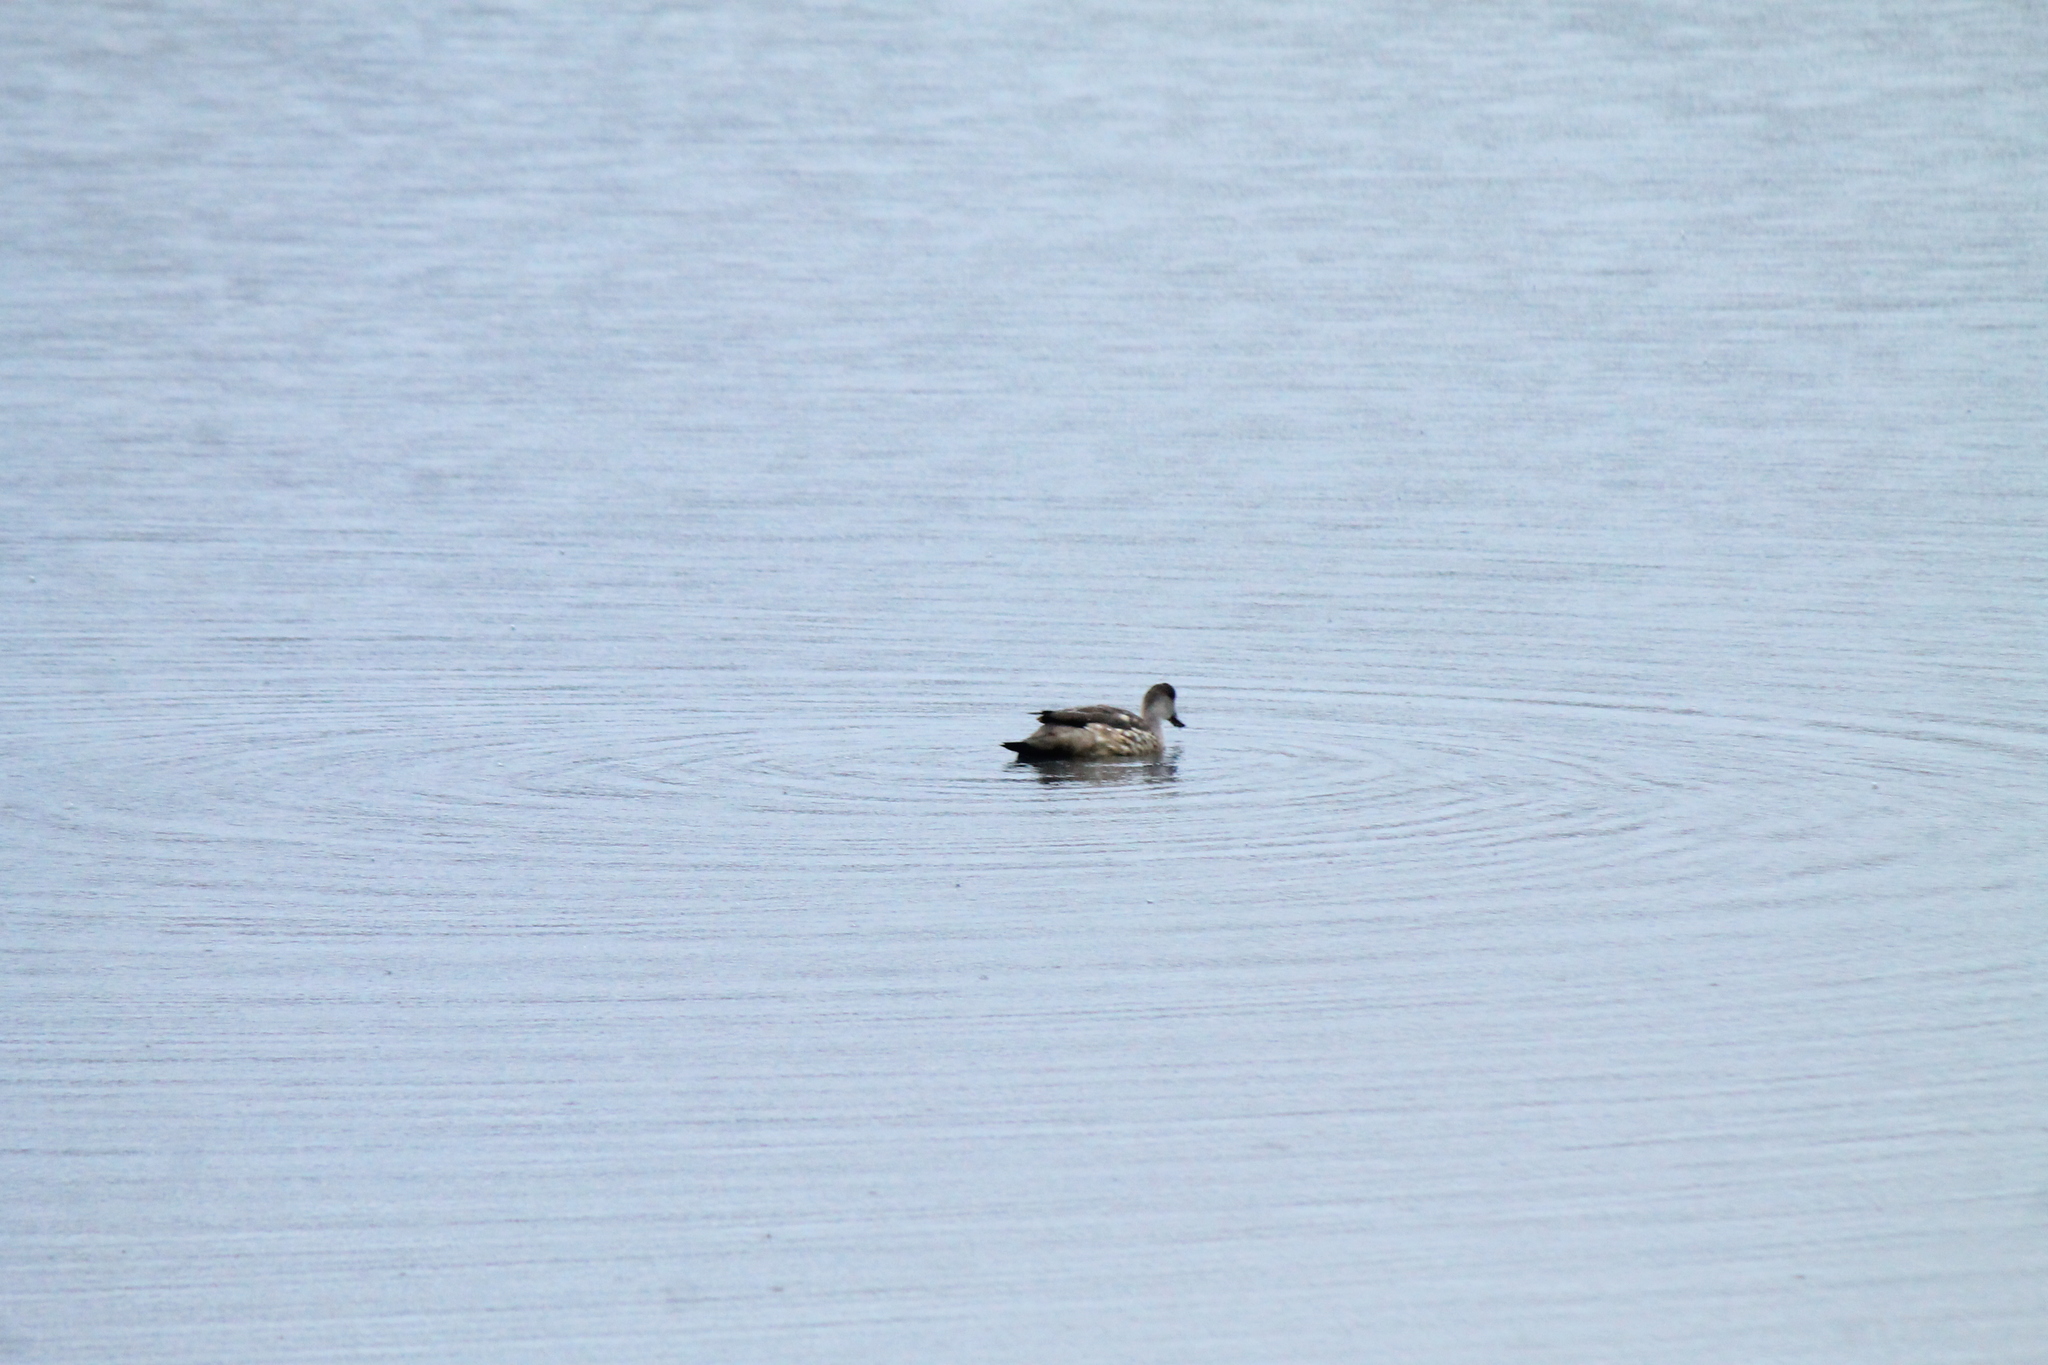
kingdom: Animalia
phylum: Chordata
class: Aves
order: Anseriformes
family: Anatidae
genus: Lophonetta
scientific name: Lophonetta specularioides
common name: Crested duck
